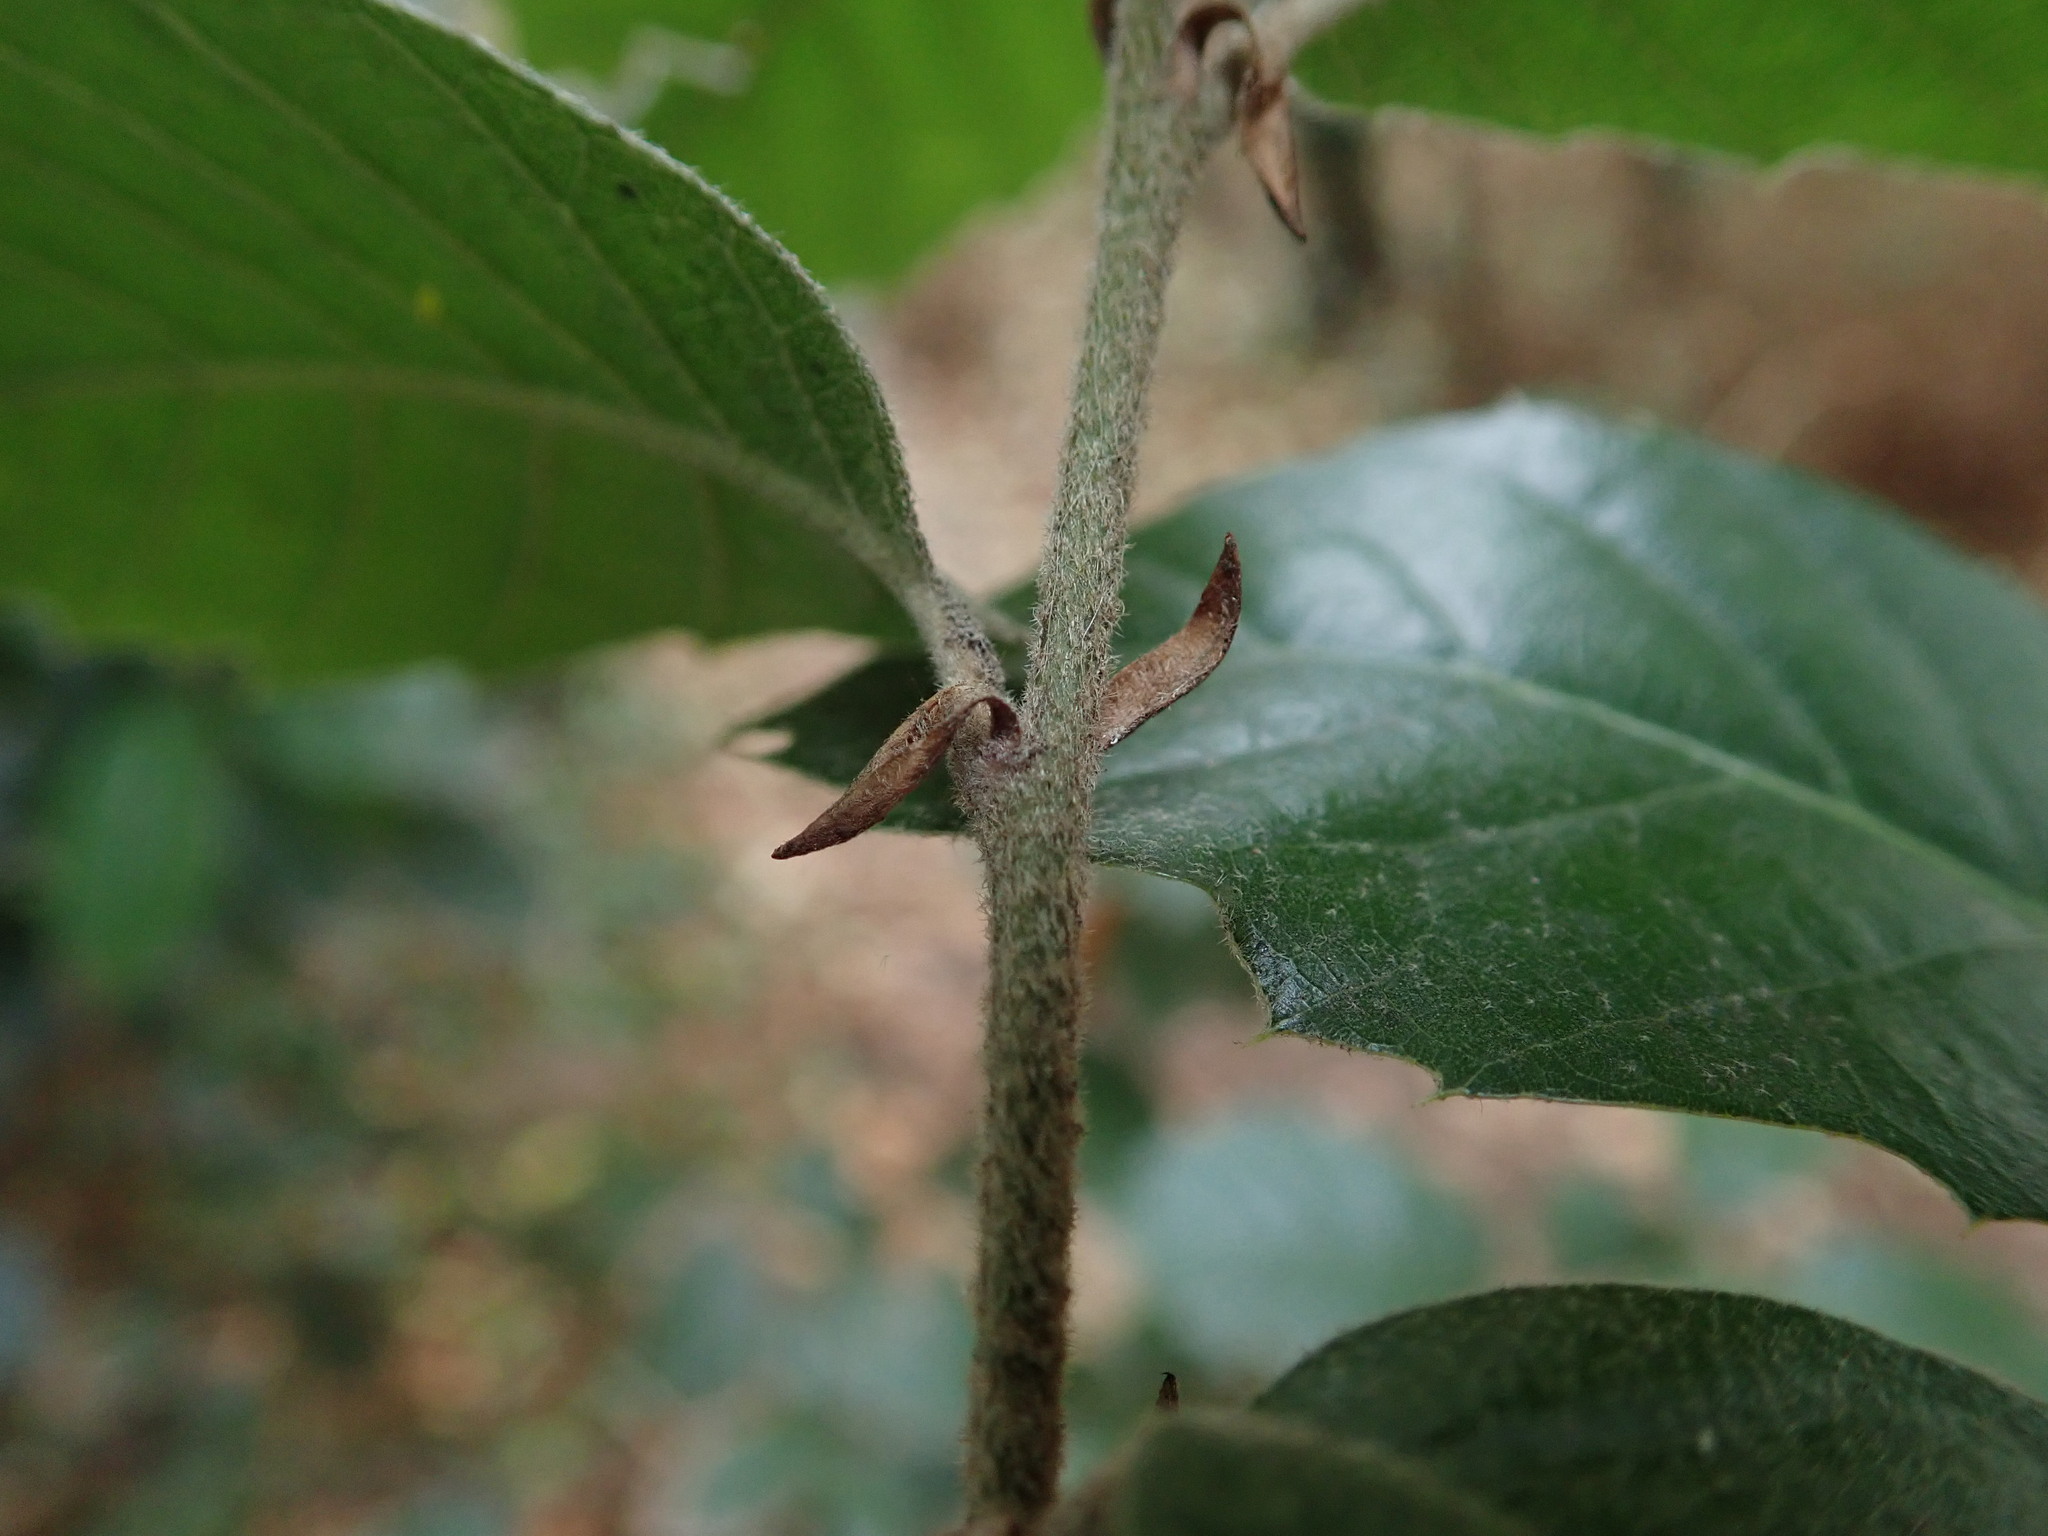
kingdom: Plantae
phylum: Tracheophyta
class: Magnoliopsida
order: Fagales
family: Fagaceae
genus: Quercus
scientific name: Quercus ilex
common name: Evergreen oak
